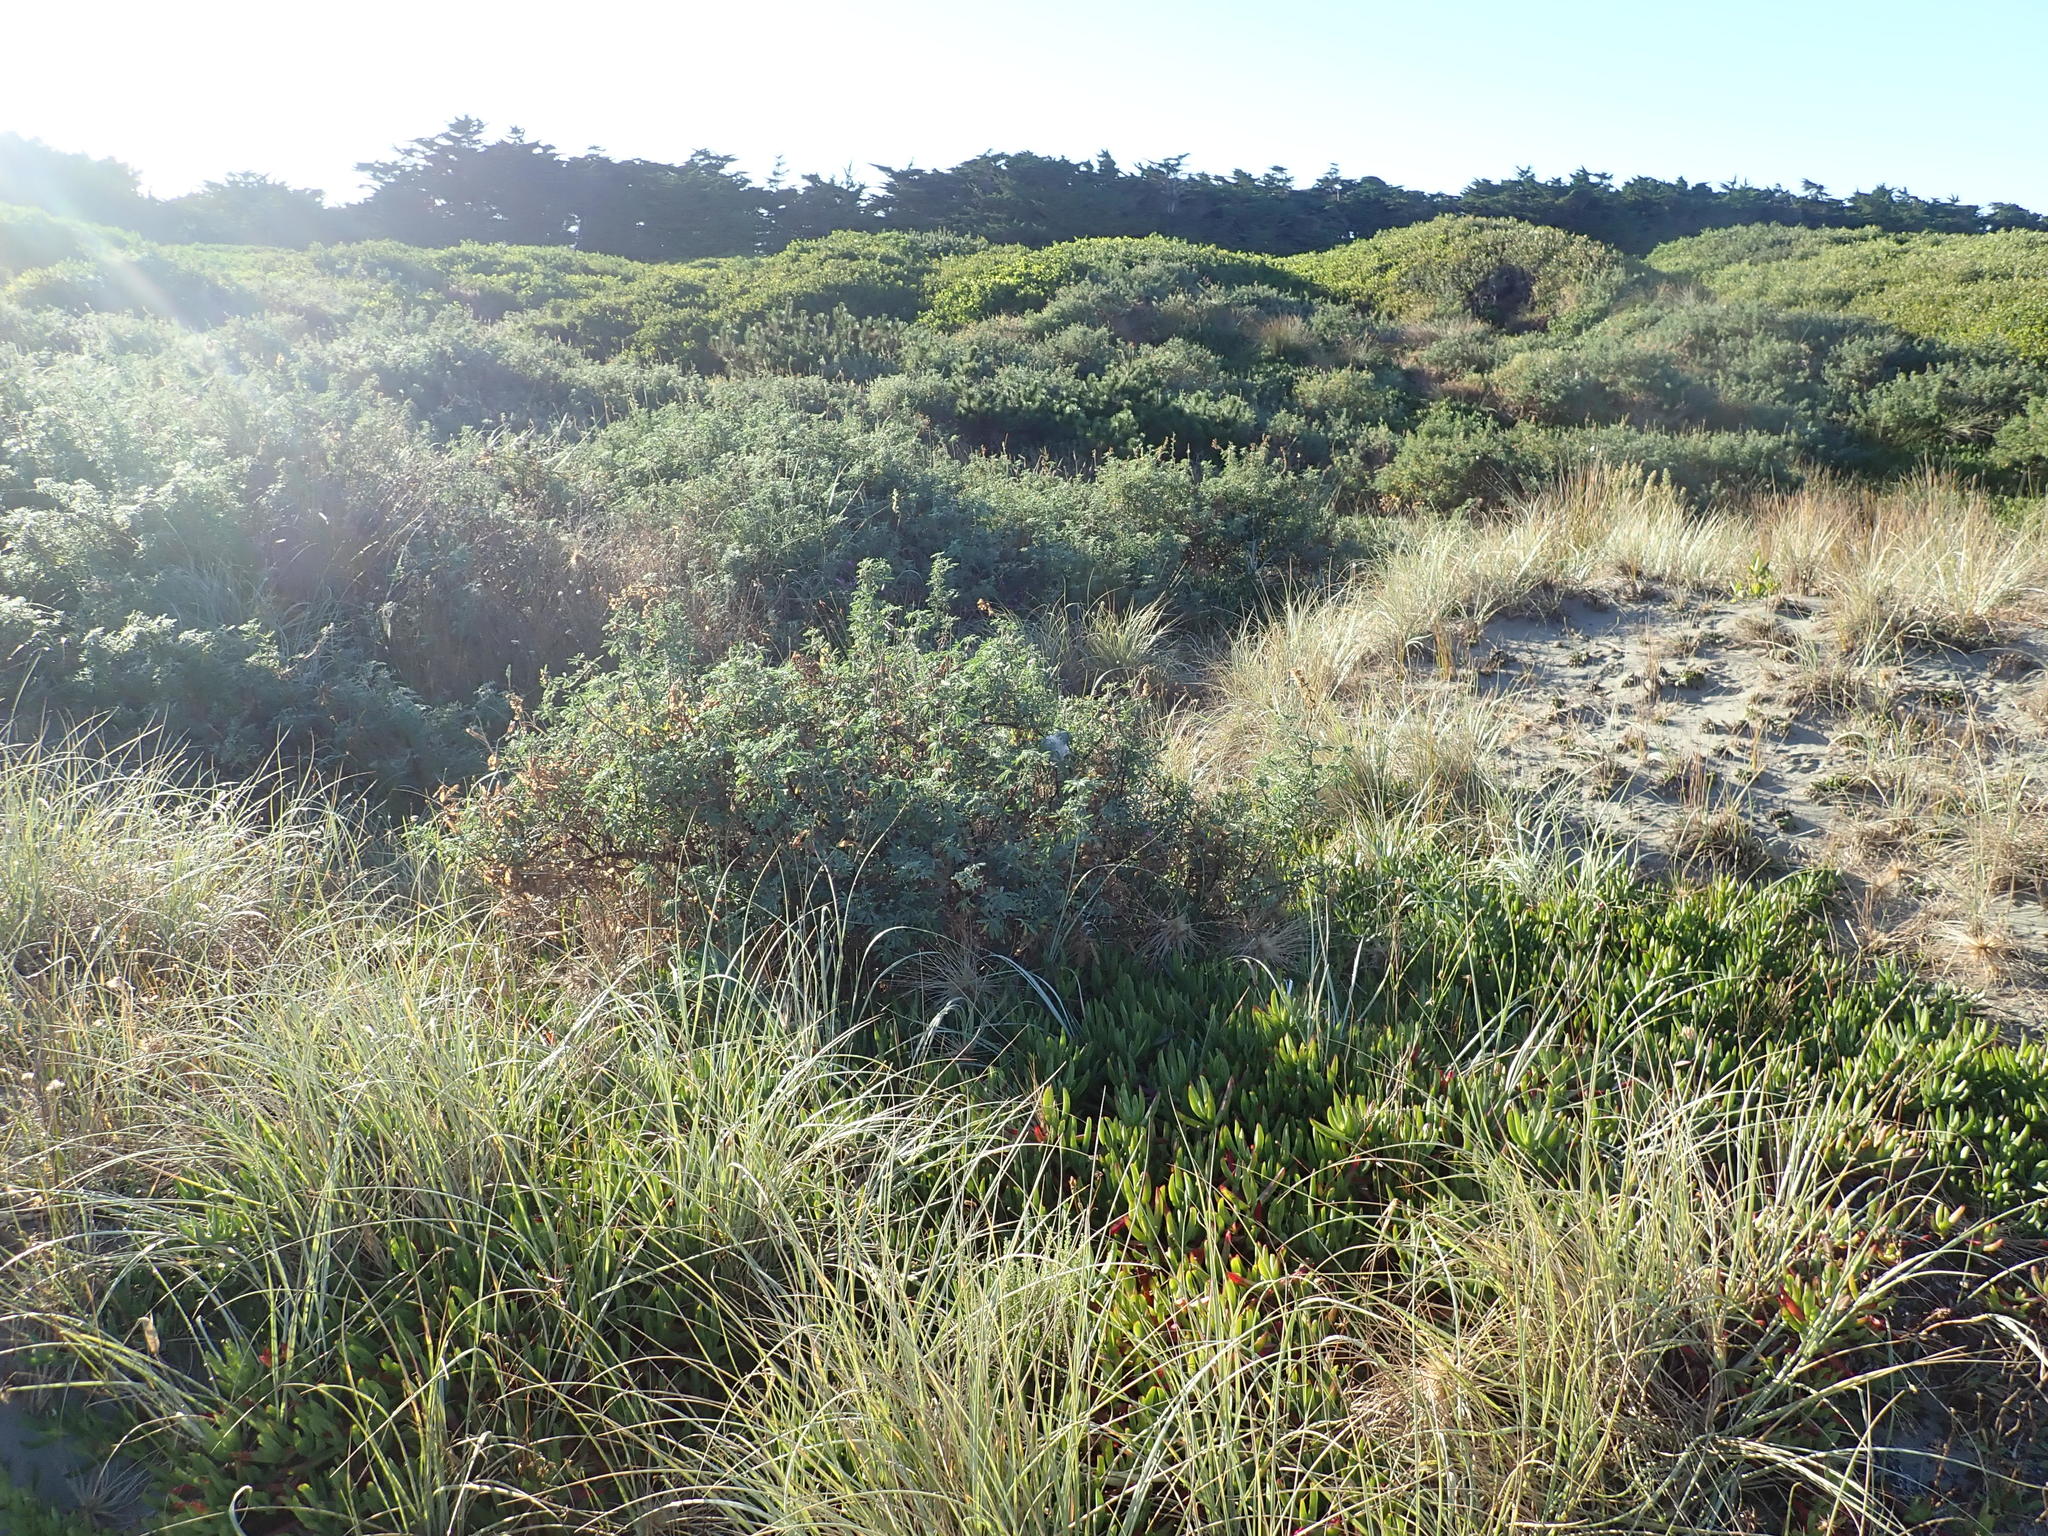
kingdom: Plantae
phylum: Tracheophyta
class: Magnoliopsida
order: Fabales
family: Fabaceae
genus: Lupinus
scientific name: Lupinus arboreus
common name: Yellow bush lupine
